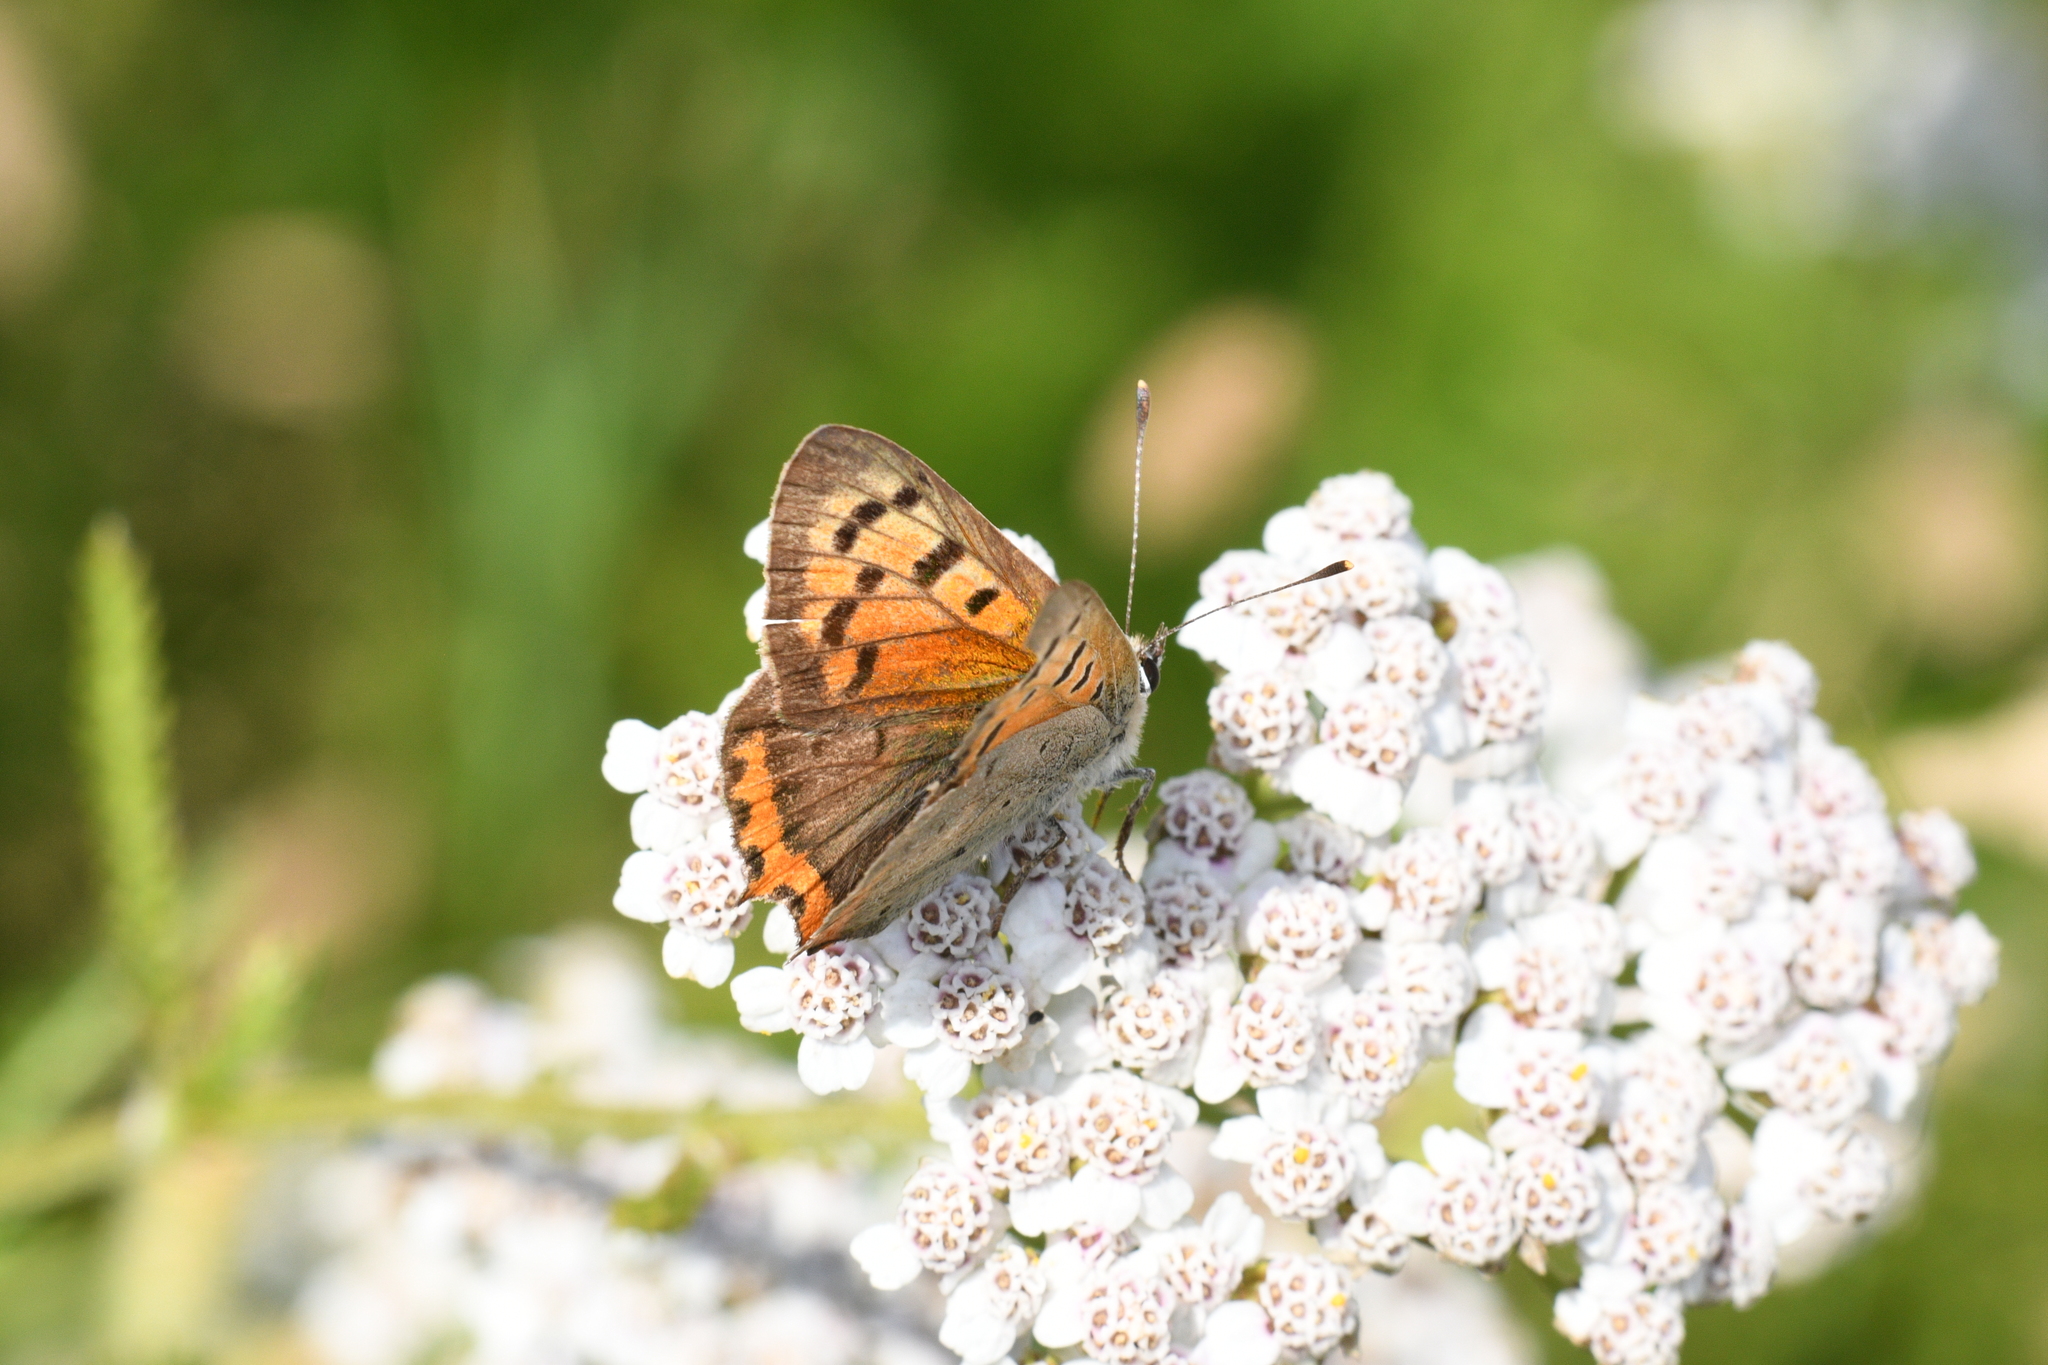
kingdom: Animalia
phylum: Arthropoda
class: Insecta
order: Lepidoptera
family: Lycaenidae
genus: Lycaena
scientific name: Lycaena phlaeas
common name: Small copper
